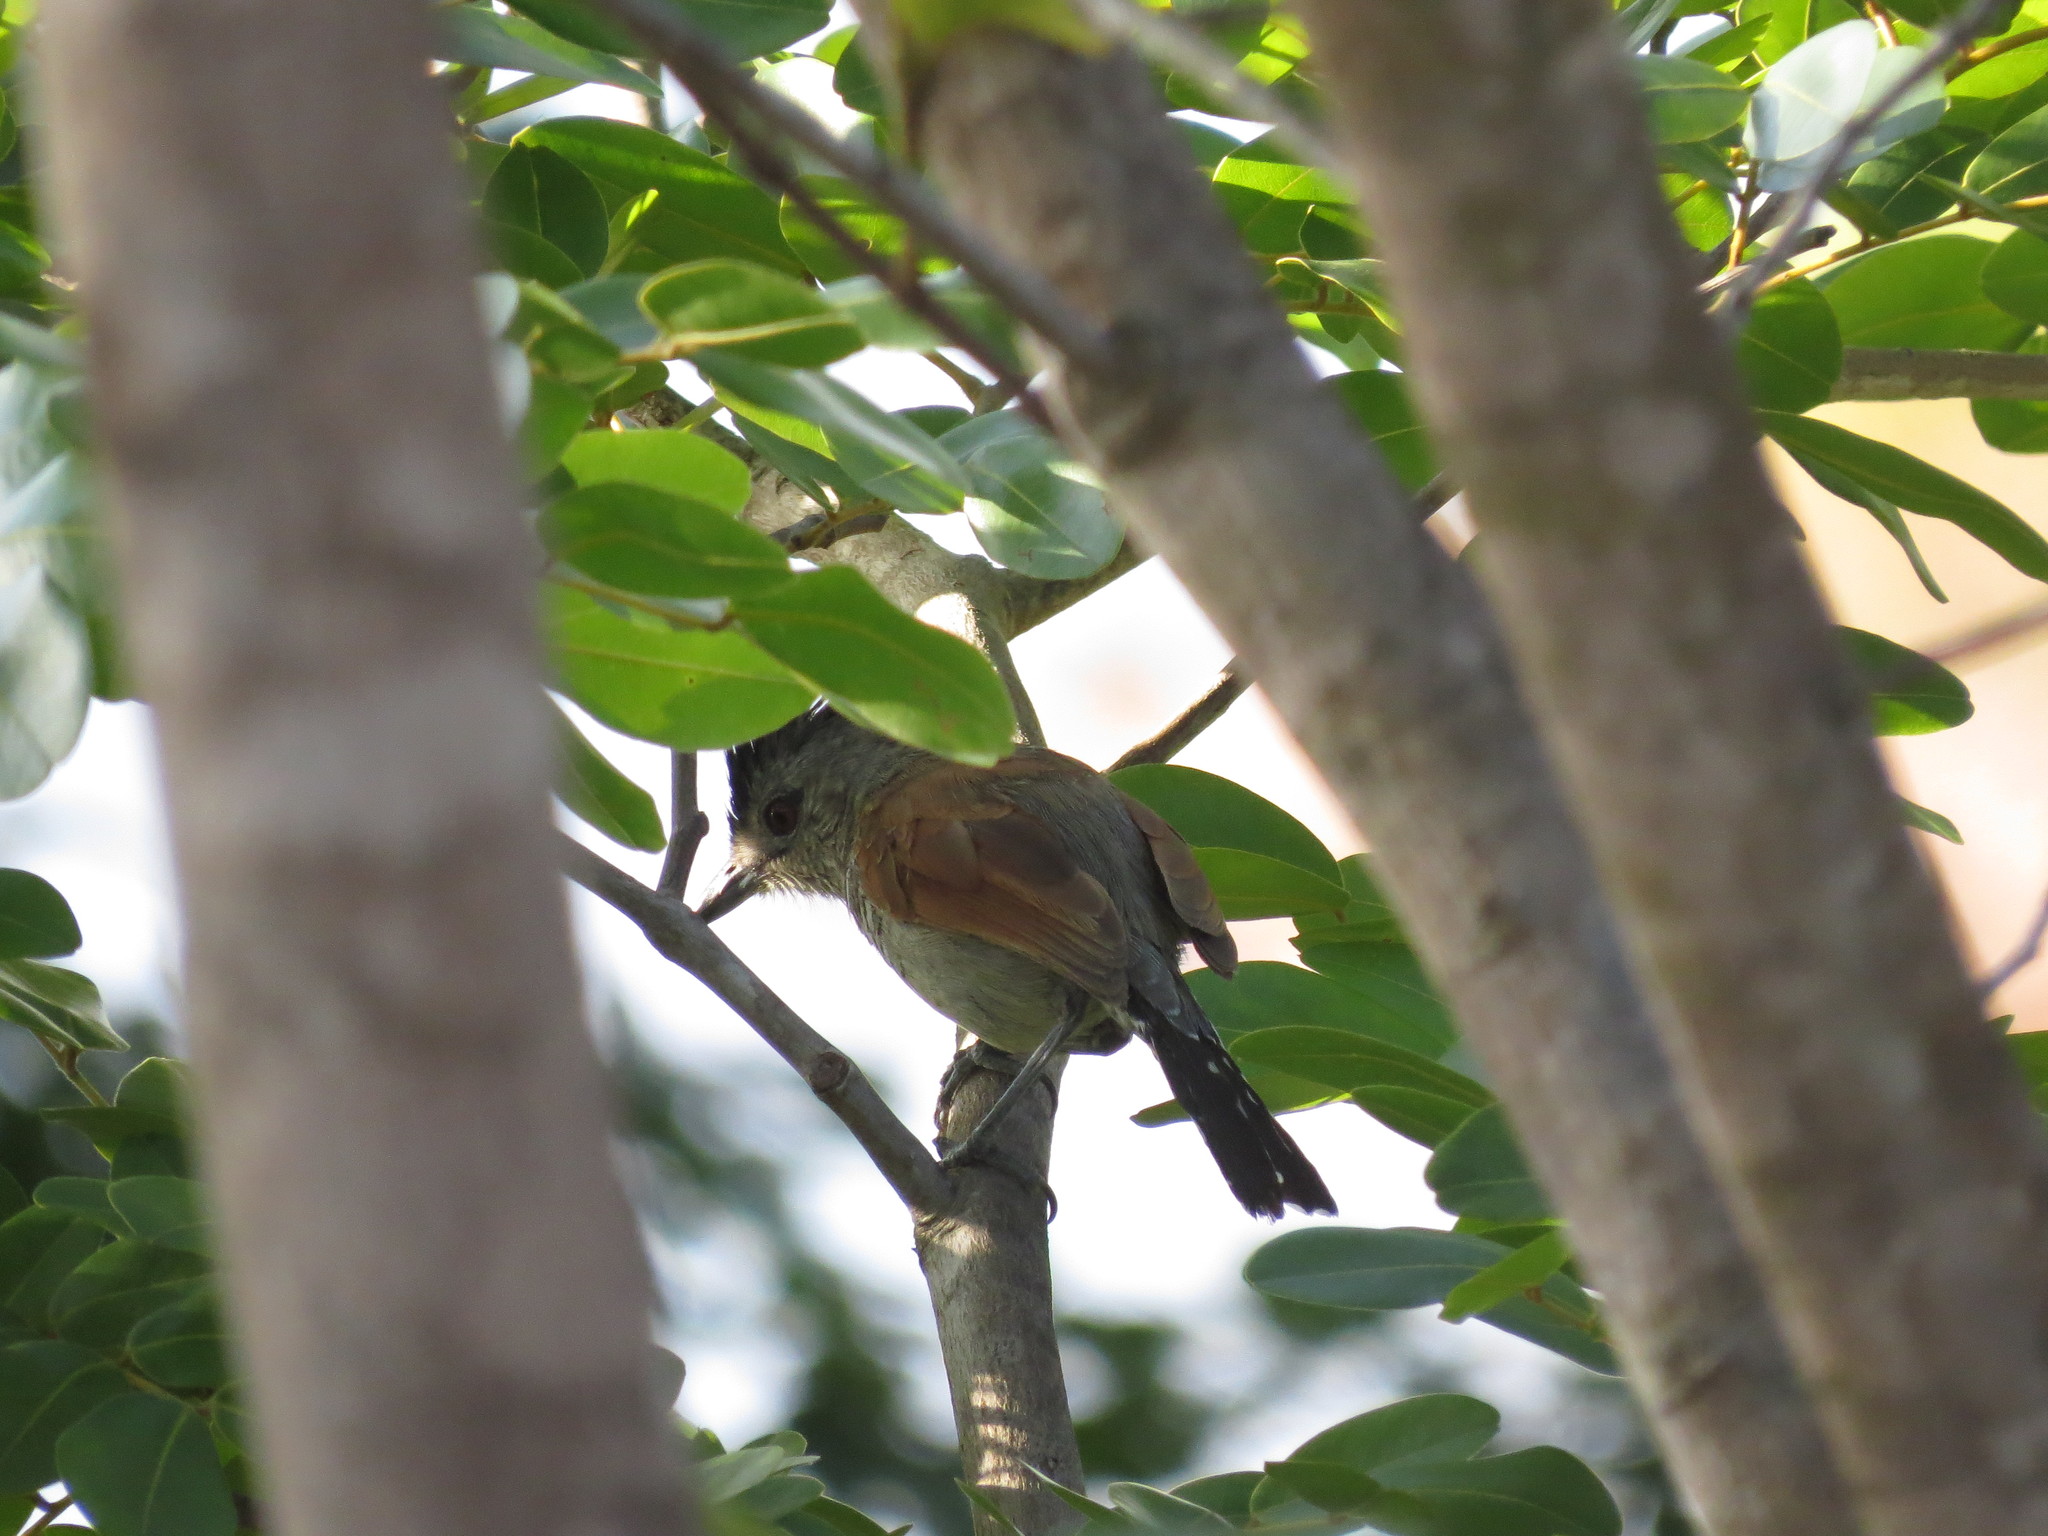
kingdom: Animalia
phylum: Chordata
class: Aves
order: Passeriformes
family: Thamnophilidae
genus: Thamnophilus
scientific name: Thamnophilus torquatus
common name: Rufous-winged antshrike
